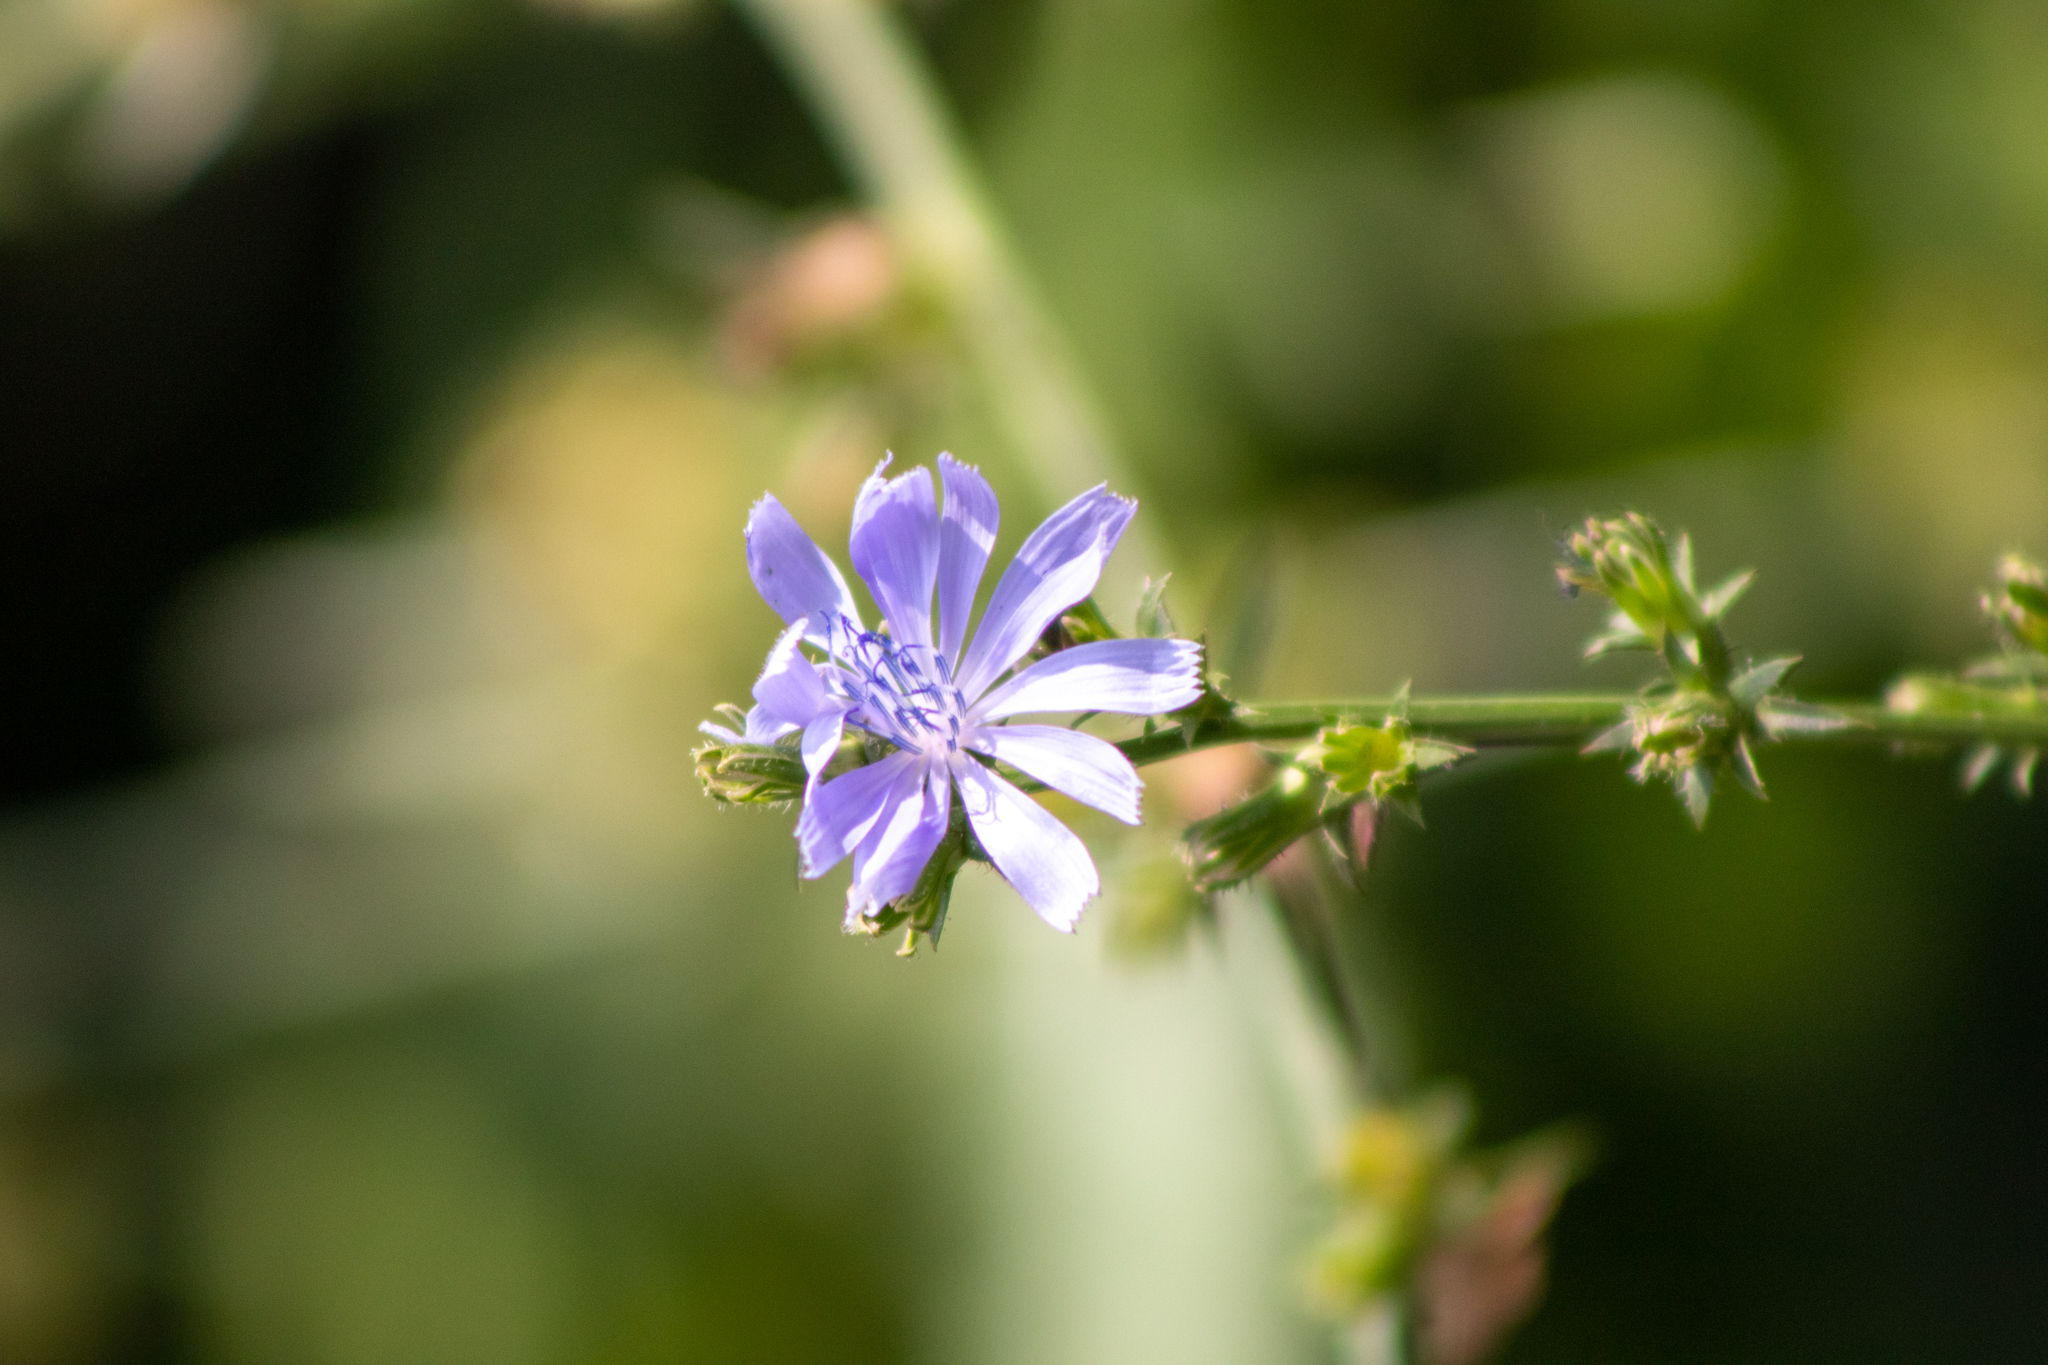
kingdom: Plantae
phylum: Tracheophyta
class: Magnoliopsida
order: Asterales
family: Asteraceae
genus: Cichorium
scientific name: Cichorium intybus
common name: Chicory
